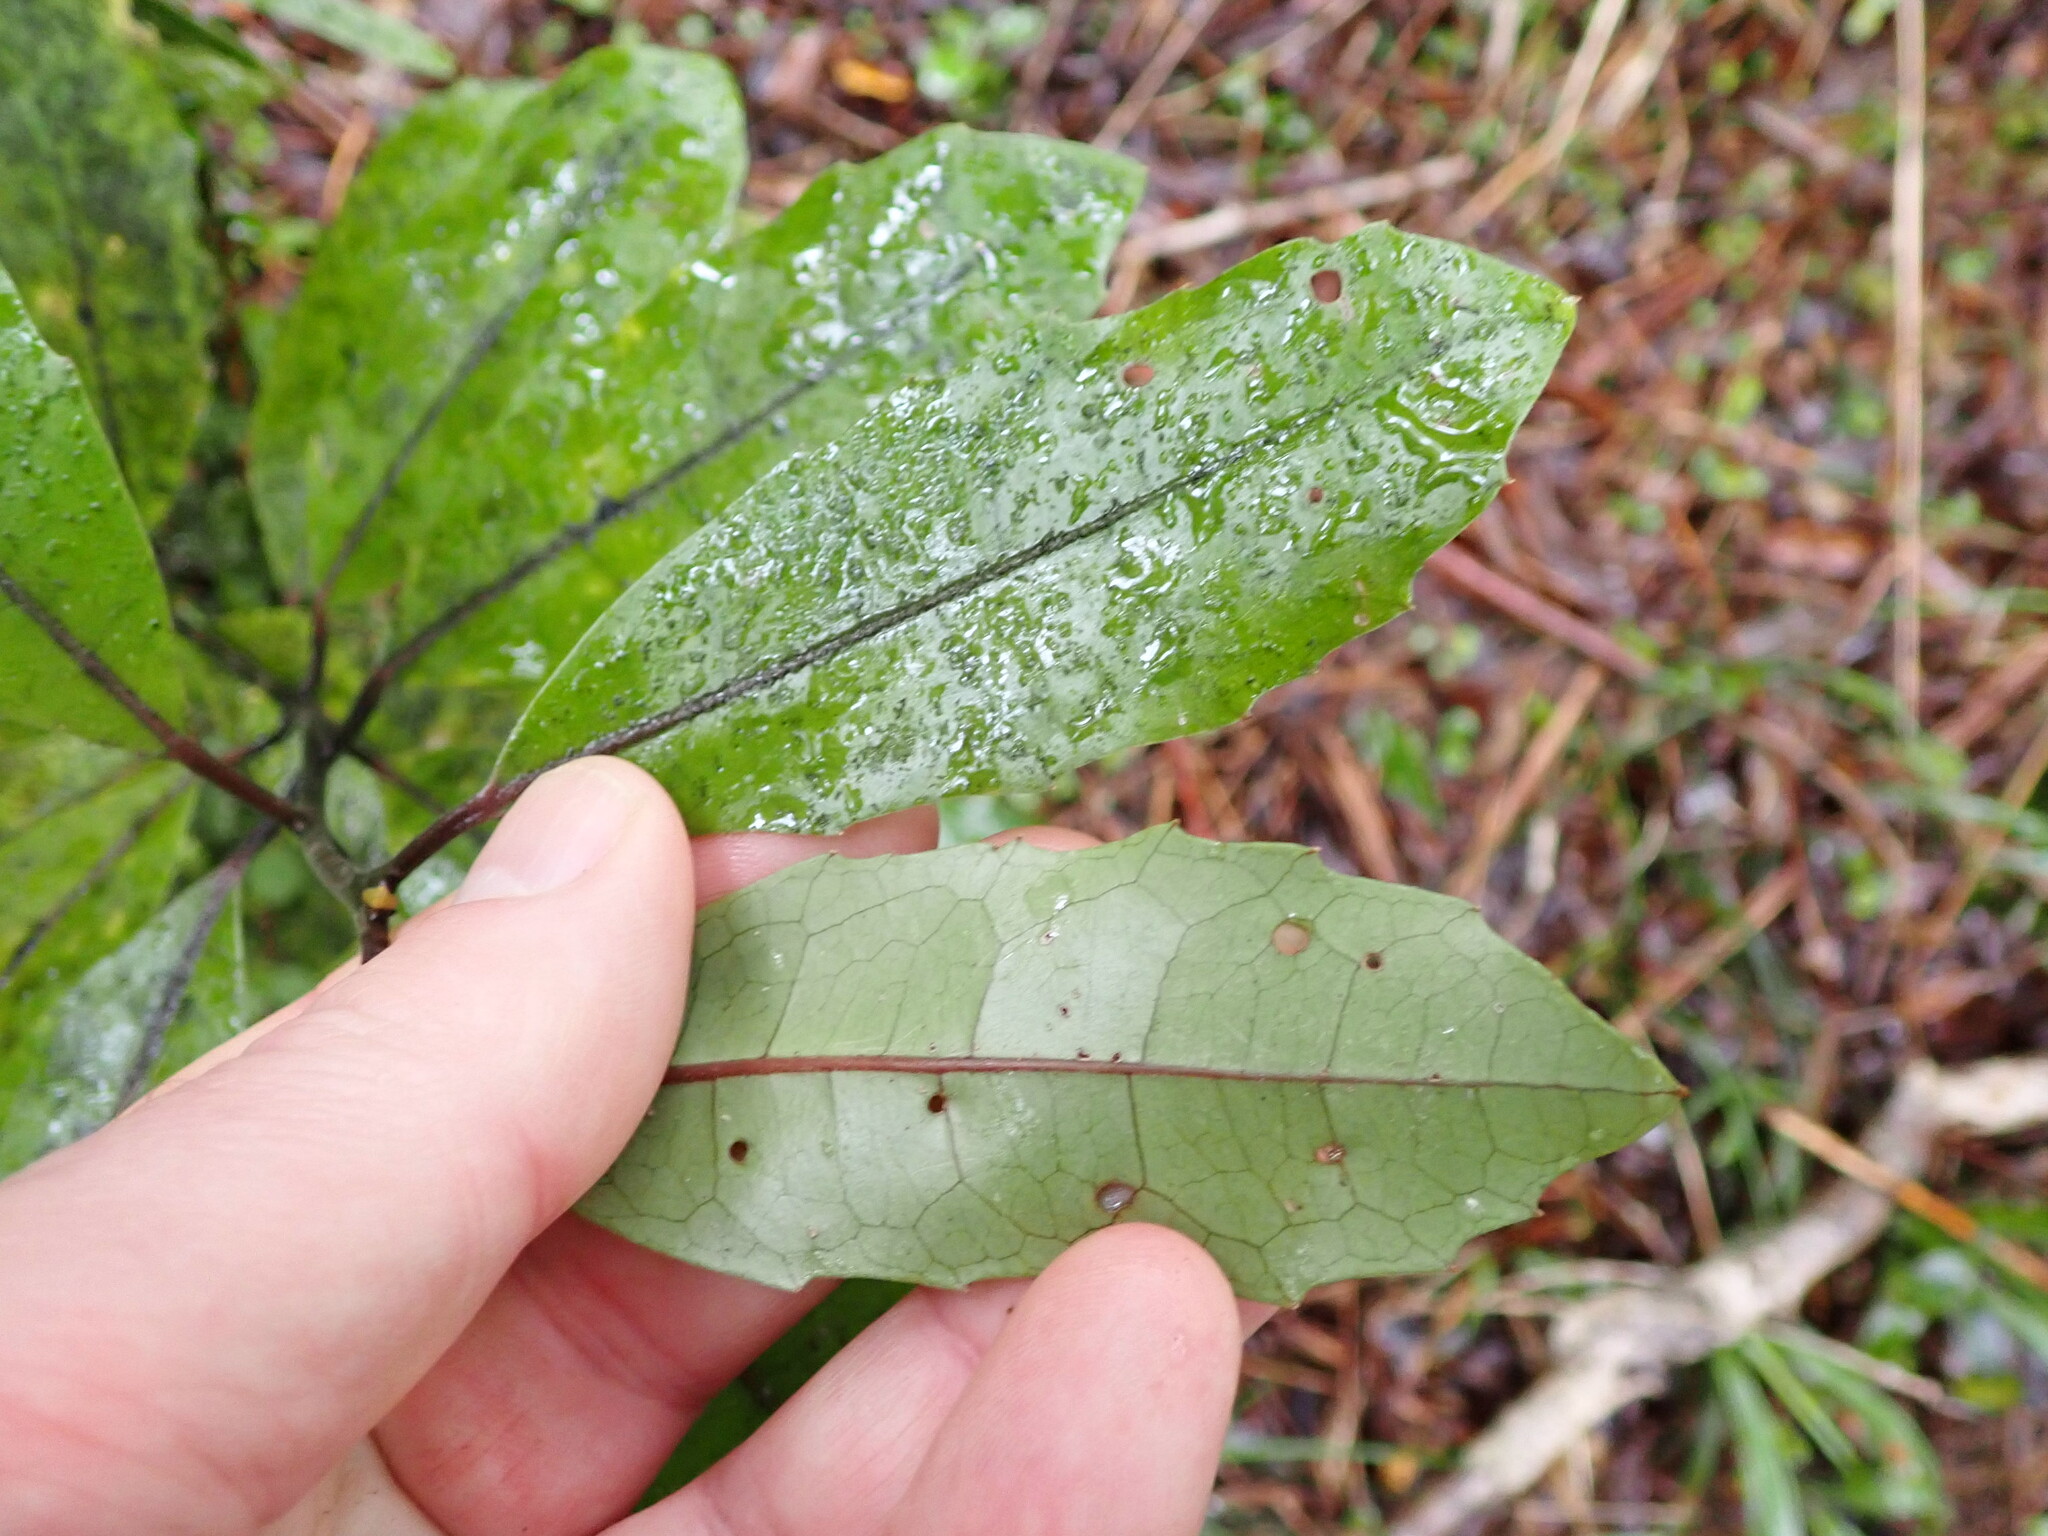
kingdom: Plantae
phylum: Tracheophyta
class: Magnoliopsida
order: Laurales
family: Monimiaceae
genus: Hedycarya
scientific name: Hedycarya arborea
